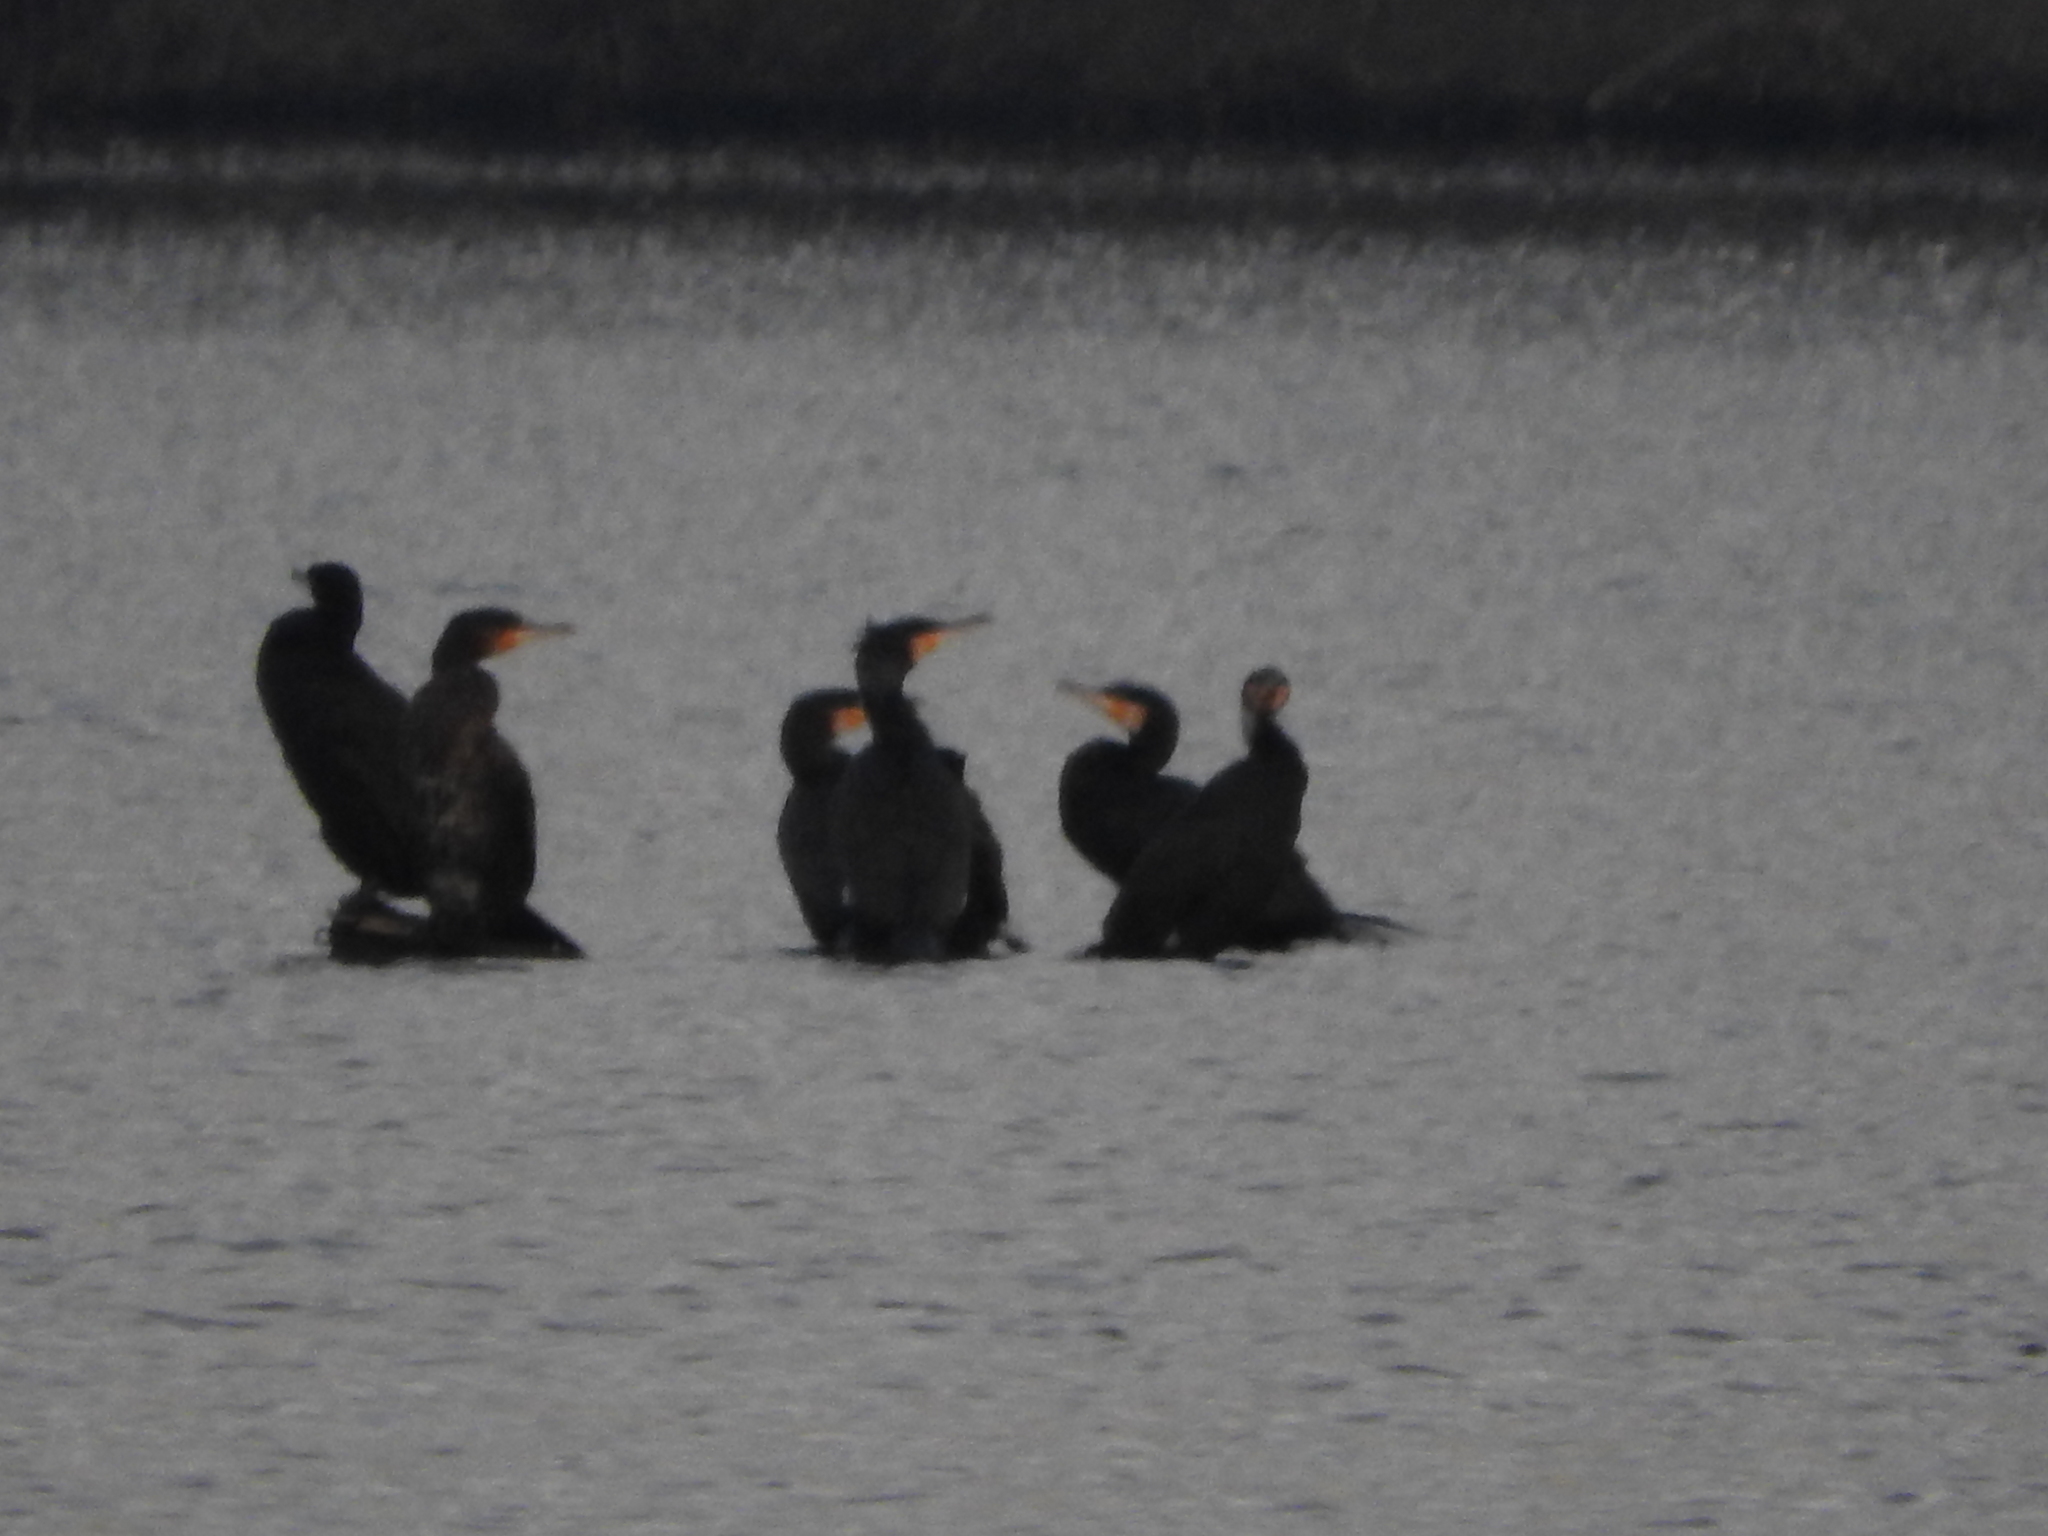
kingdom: Animalia
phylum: Chordata
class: Aves
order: Suliformes
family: Phalacrocoracidae
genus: Phalacrocorax
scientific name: Phalacrocorax carbo
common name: Great cormorant
